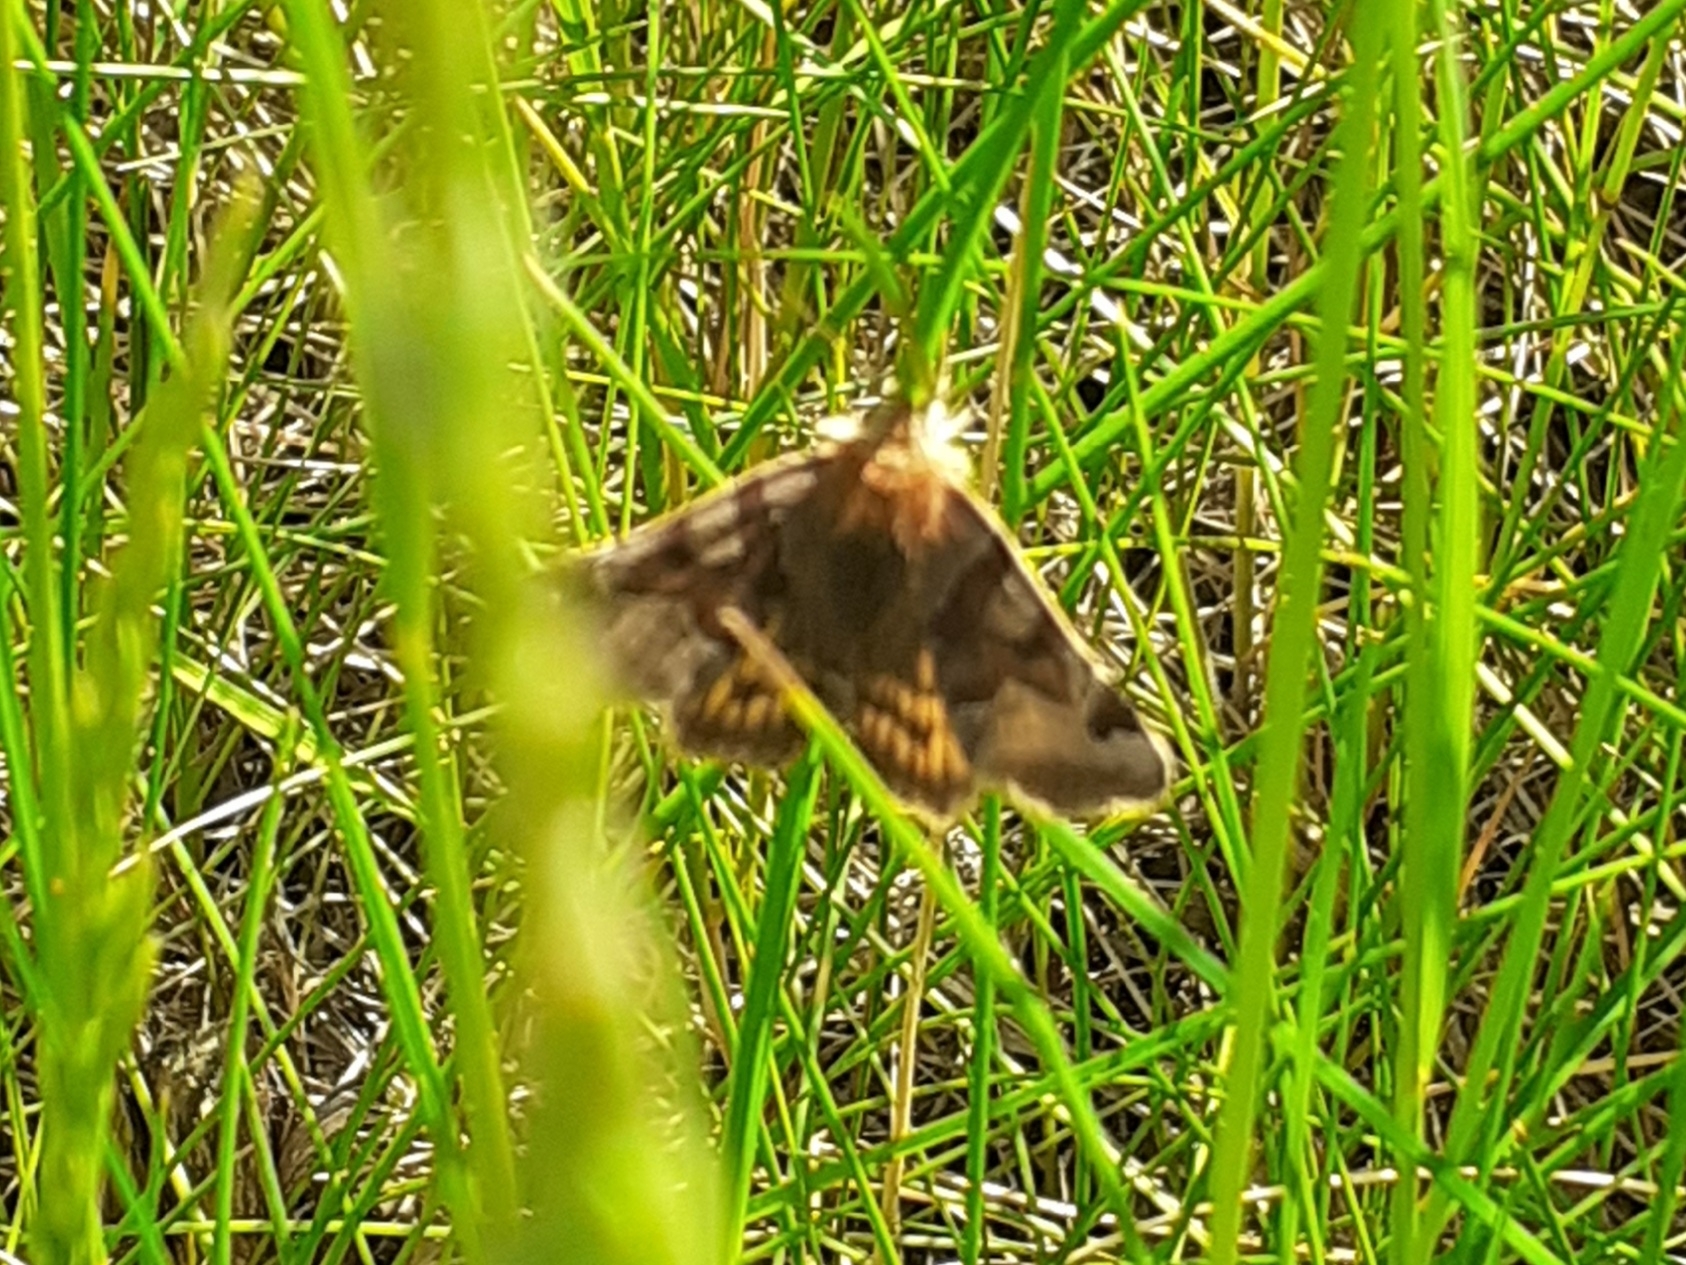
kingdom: Animalia
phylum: Arthropoda
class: Insecta
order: Lepidoptera
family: Erebidae
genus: Euclidia
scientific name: Euclidia glyphica
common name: Burnet companion
